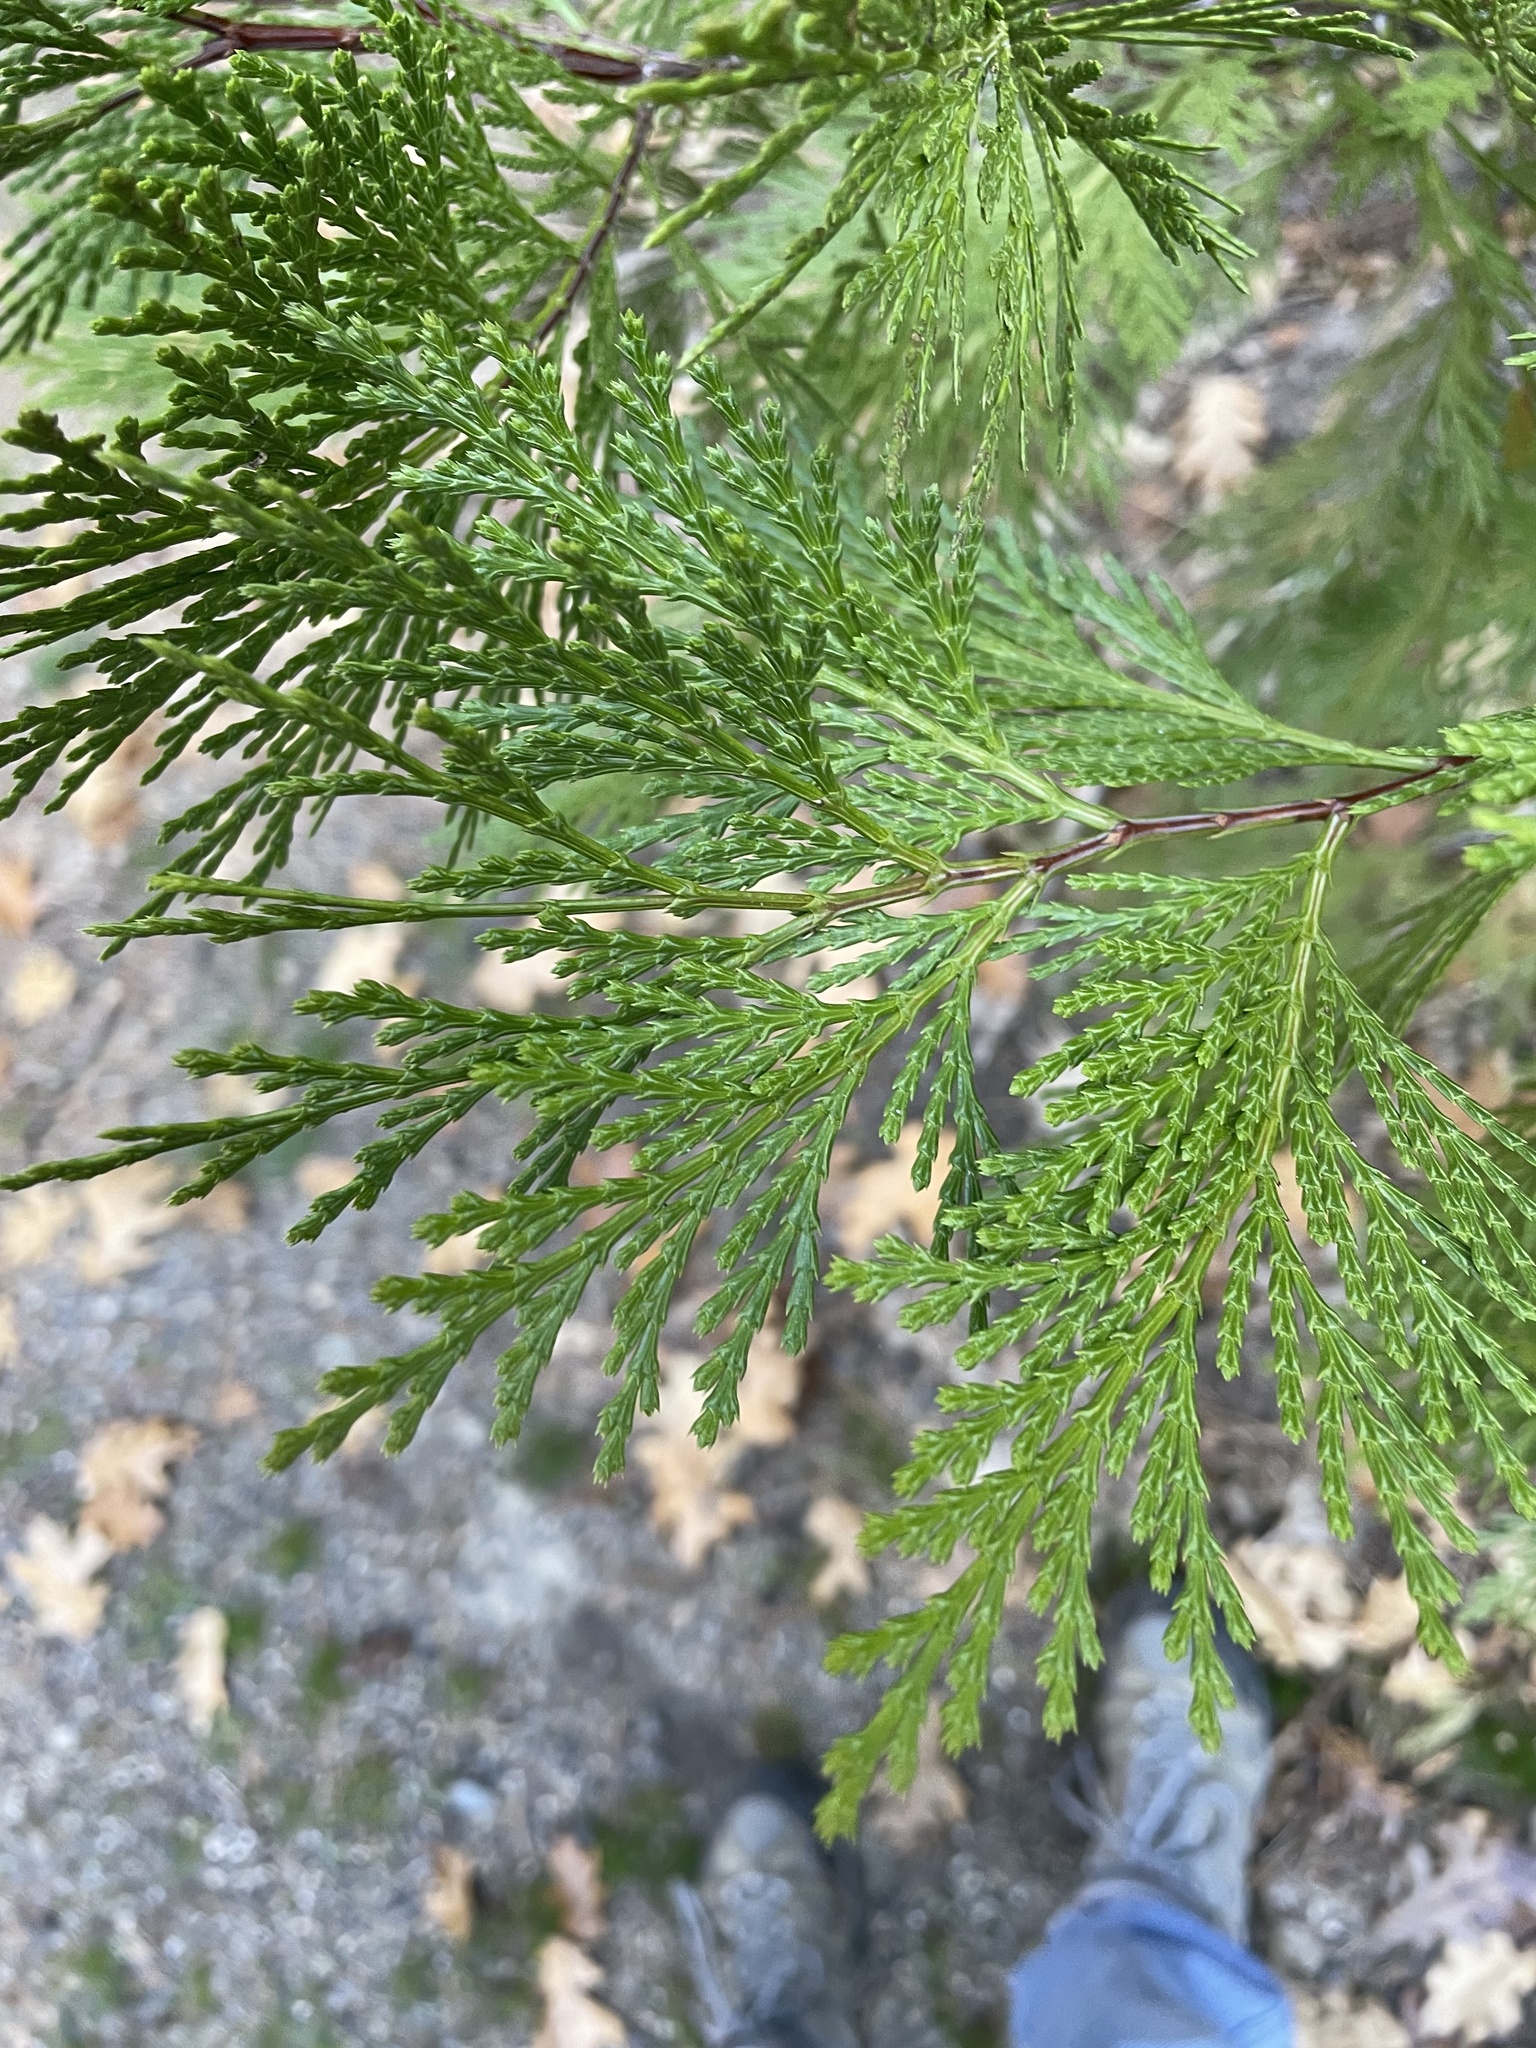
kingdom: Plantae
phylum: Tracheophyta
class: Pinopsida
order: Pinales
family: Cupressaceae
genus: Calocedrus
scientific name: Calocedrus decurrens
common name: Californian incense-cedar
